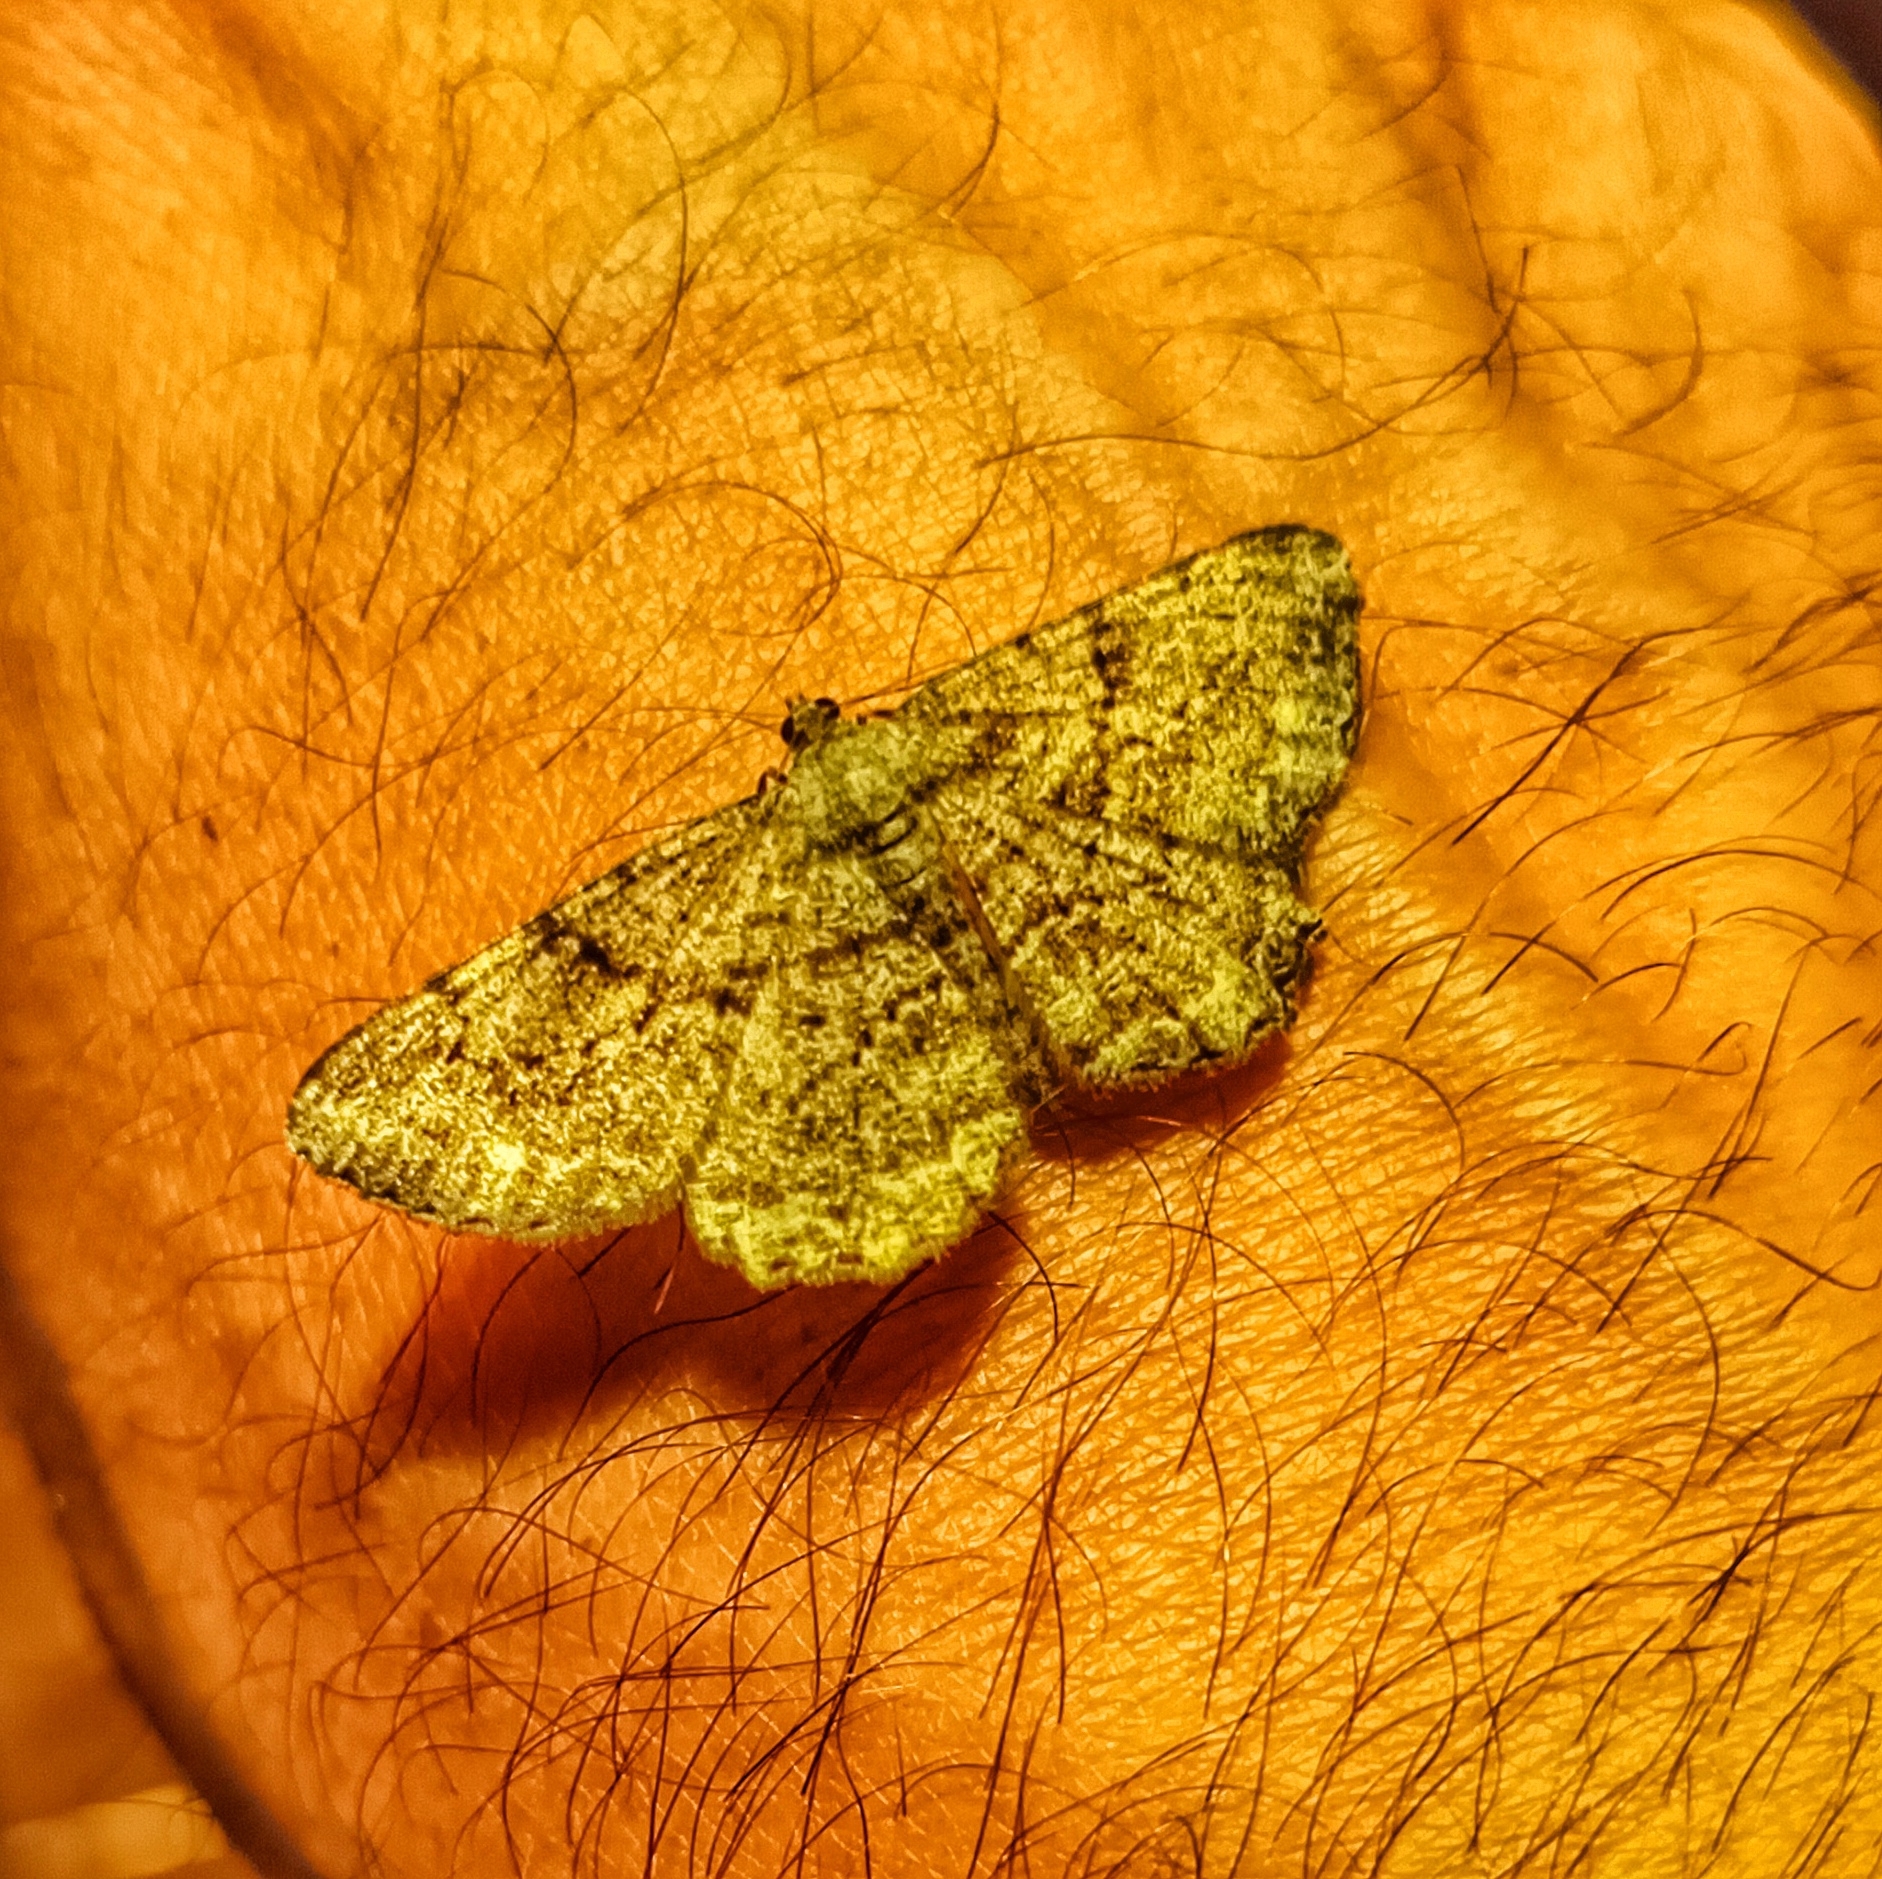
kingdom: Animalia
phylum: Arthropoda
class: Insecta
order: Lepidoptera
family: Geometridae
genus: Peribatodes
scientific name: Peribatodes rhomboidaria
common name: Willow beauty
